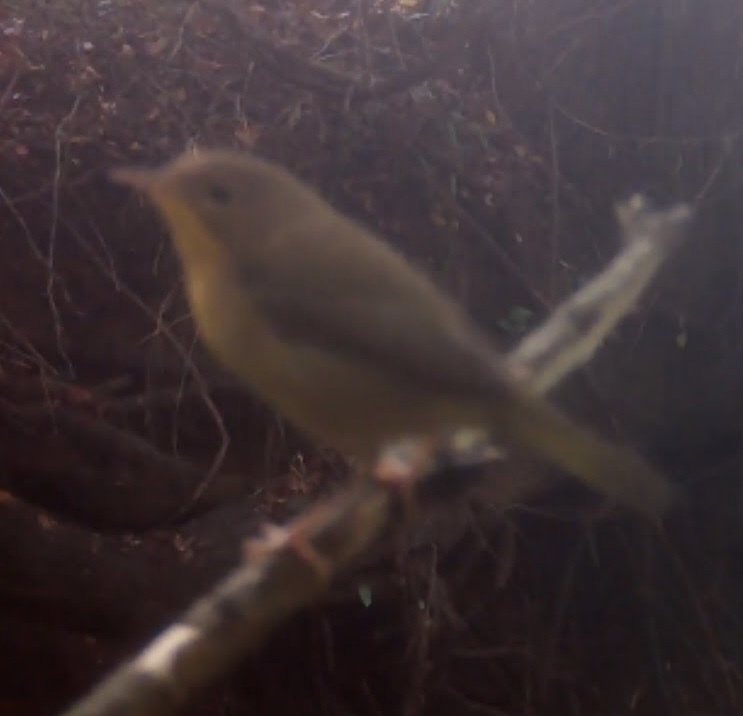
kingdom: Animalia
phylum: Chordata
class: Aves
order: Passeriformes
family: Parulidae
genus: Geothlypis
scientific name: Geothlypis trichas
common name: Common yellowthroat
